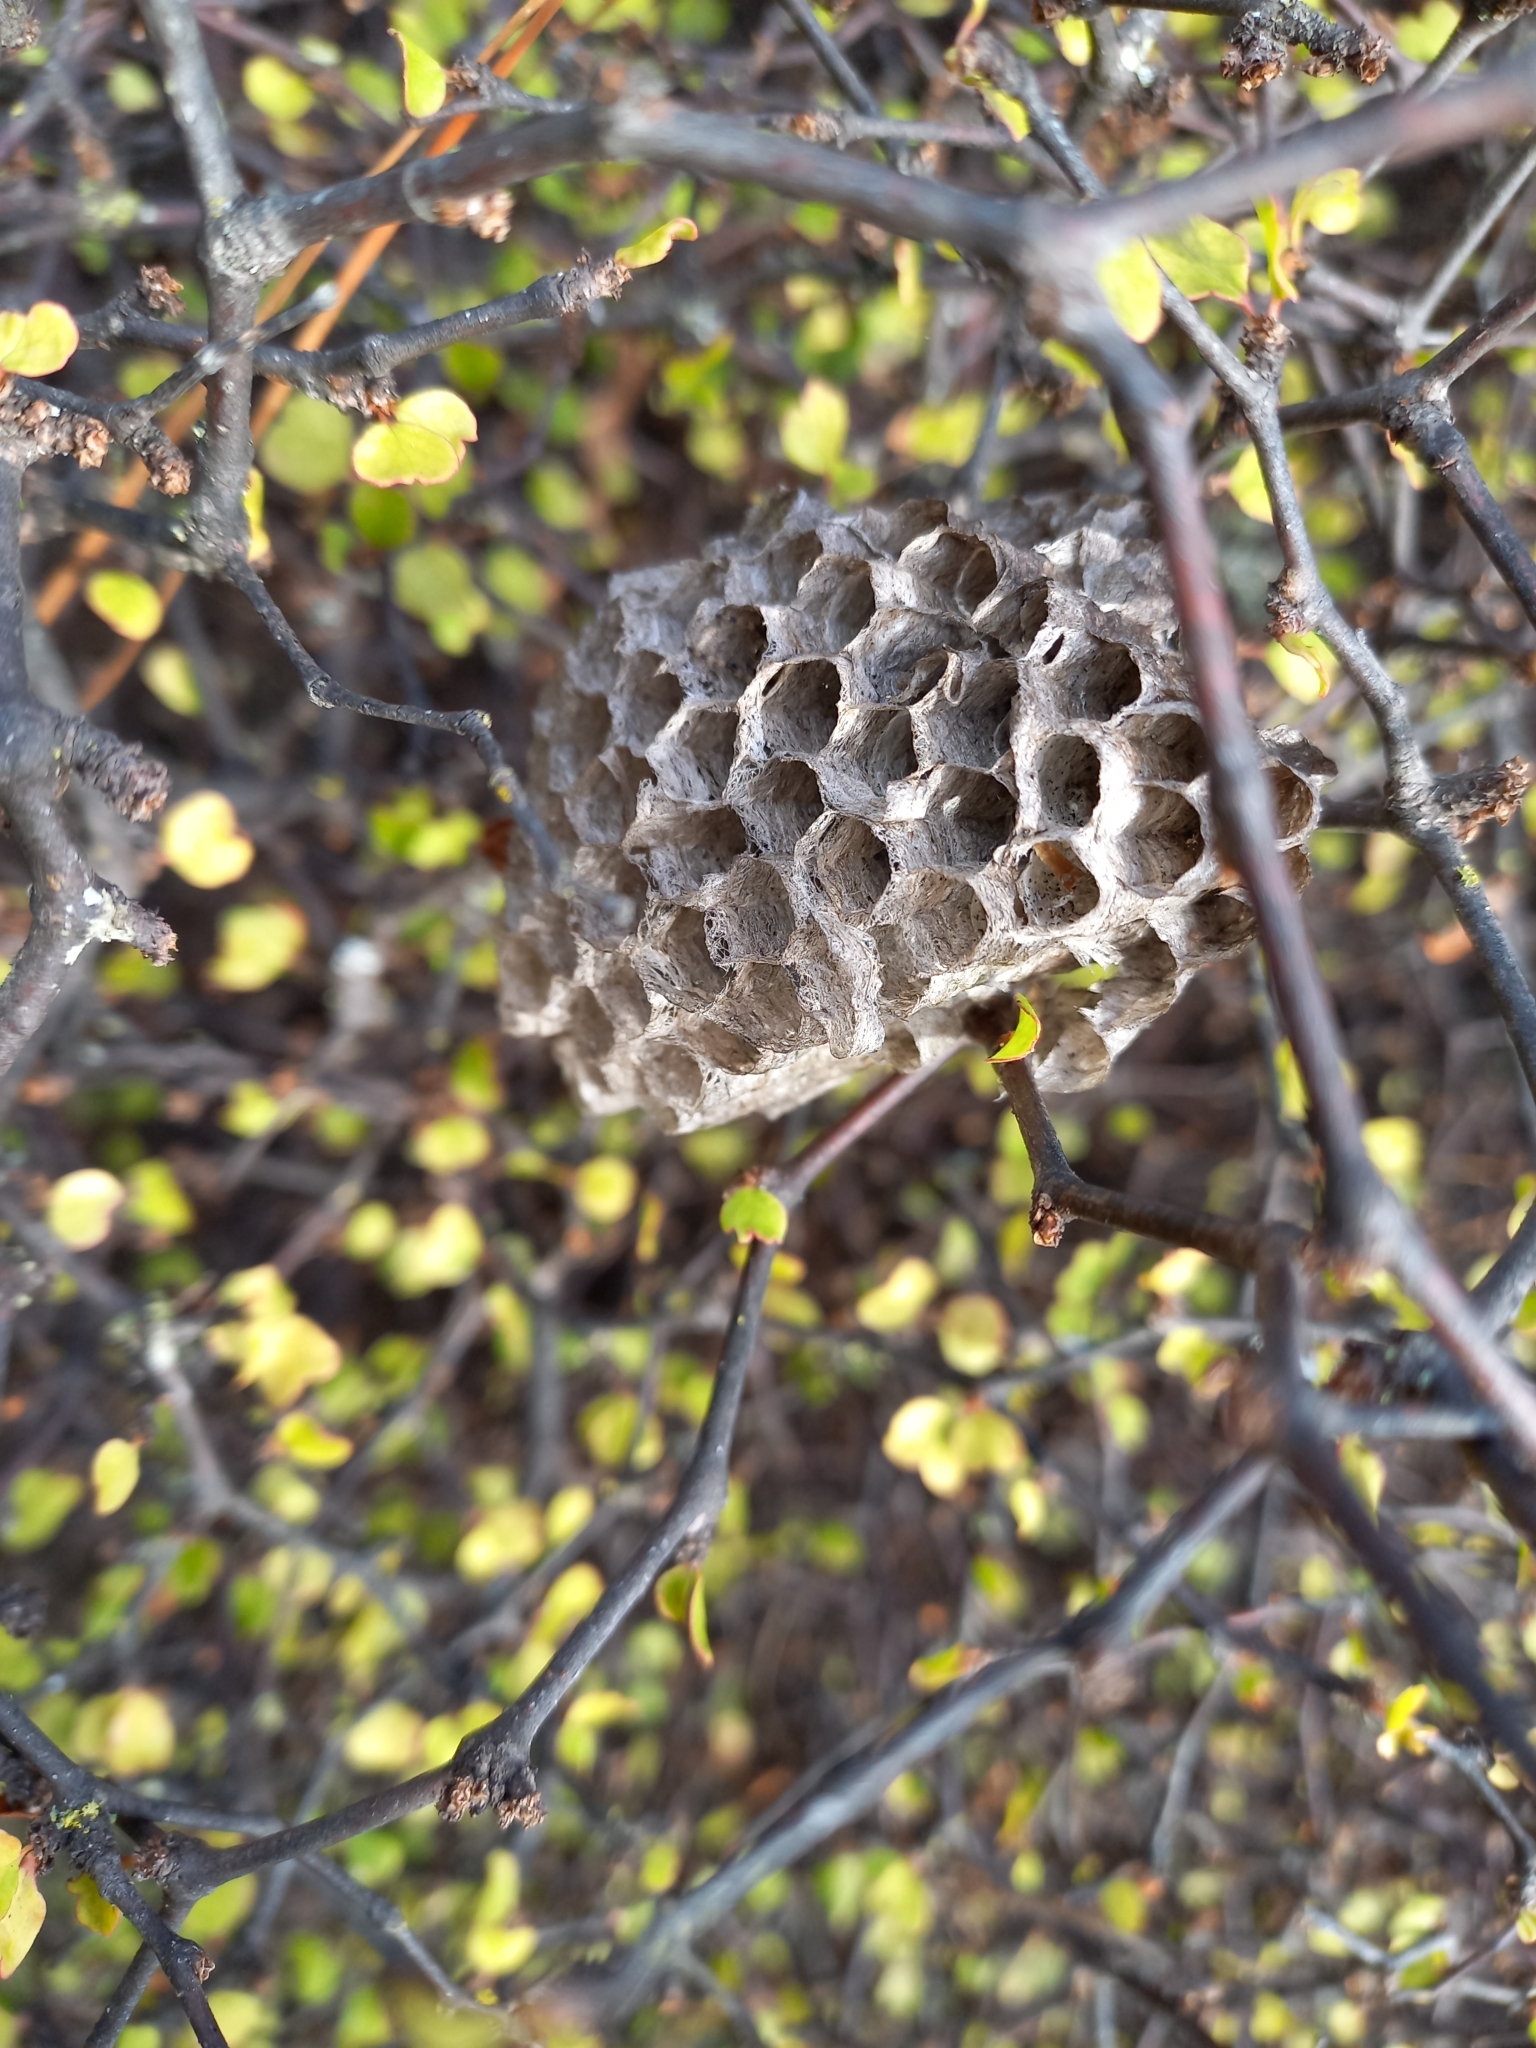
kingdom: Animalia
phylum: Arthropoda
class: Insecta
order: Hymenoptera
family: Eumenidae
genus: Polistes
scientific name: Polistes
